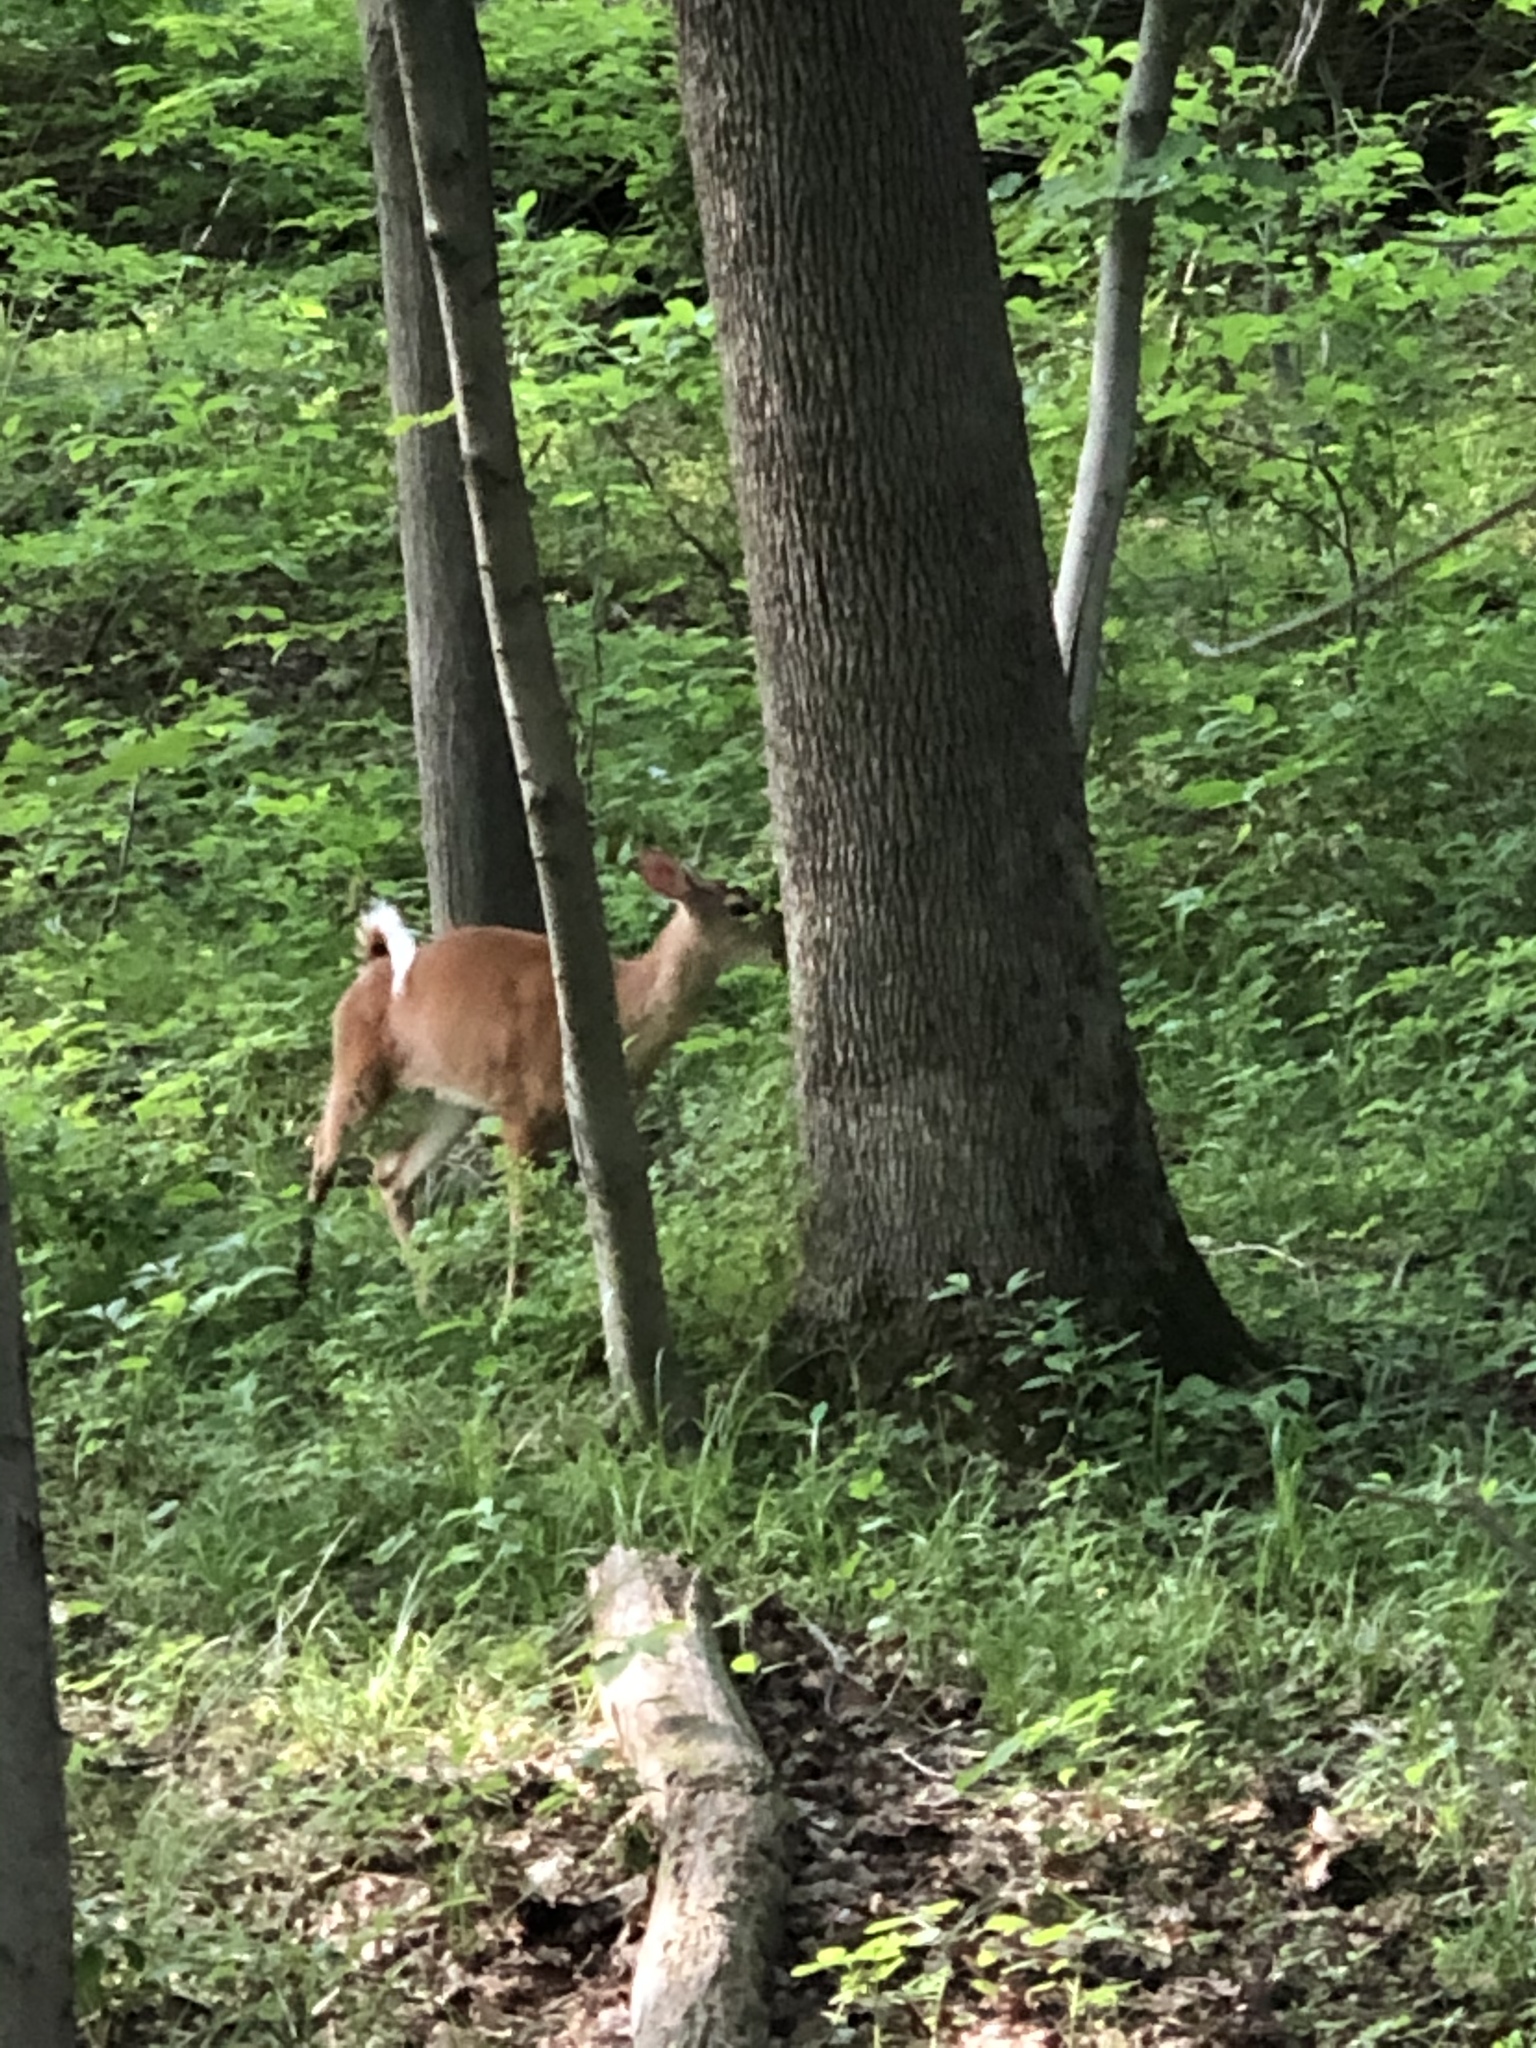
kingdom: Animalia
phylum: Chordata
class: Mammalia
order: Artiodactyla
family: Cervidae
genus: Odocoileus
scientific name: Odocoileus virginianus
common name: White-tailed deer
